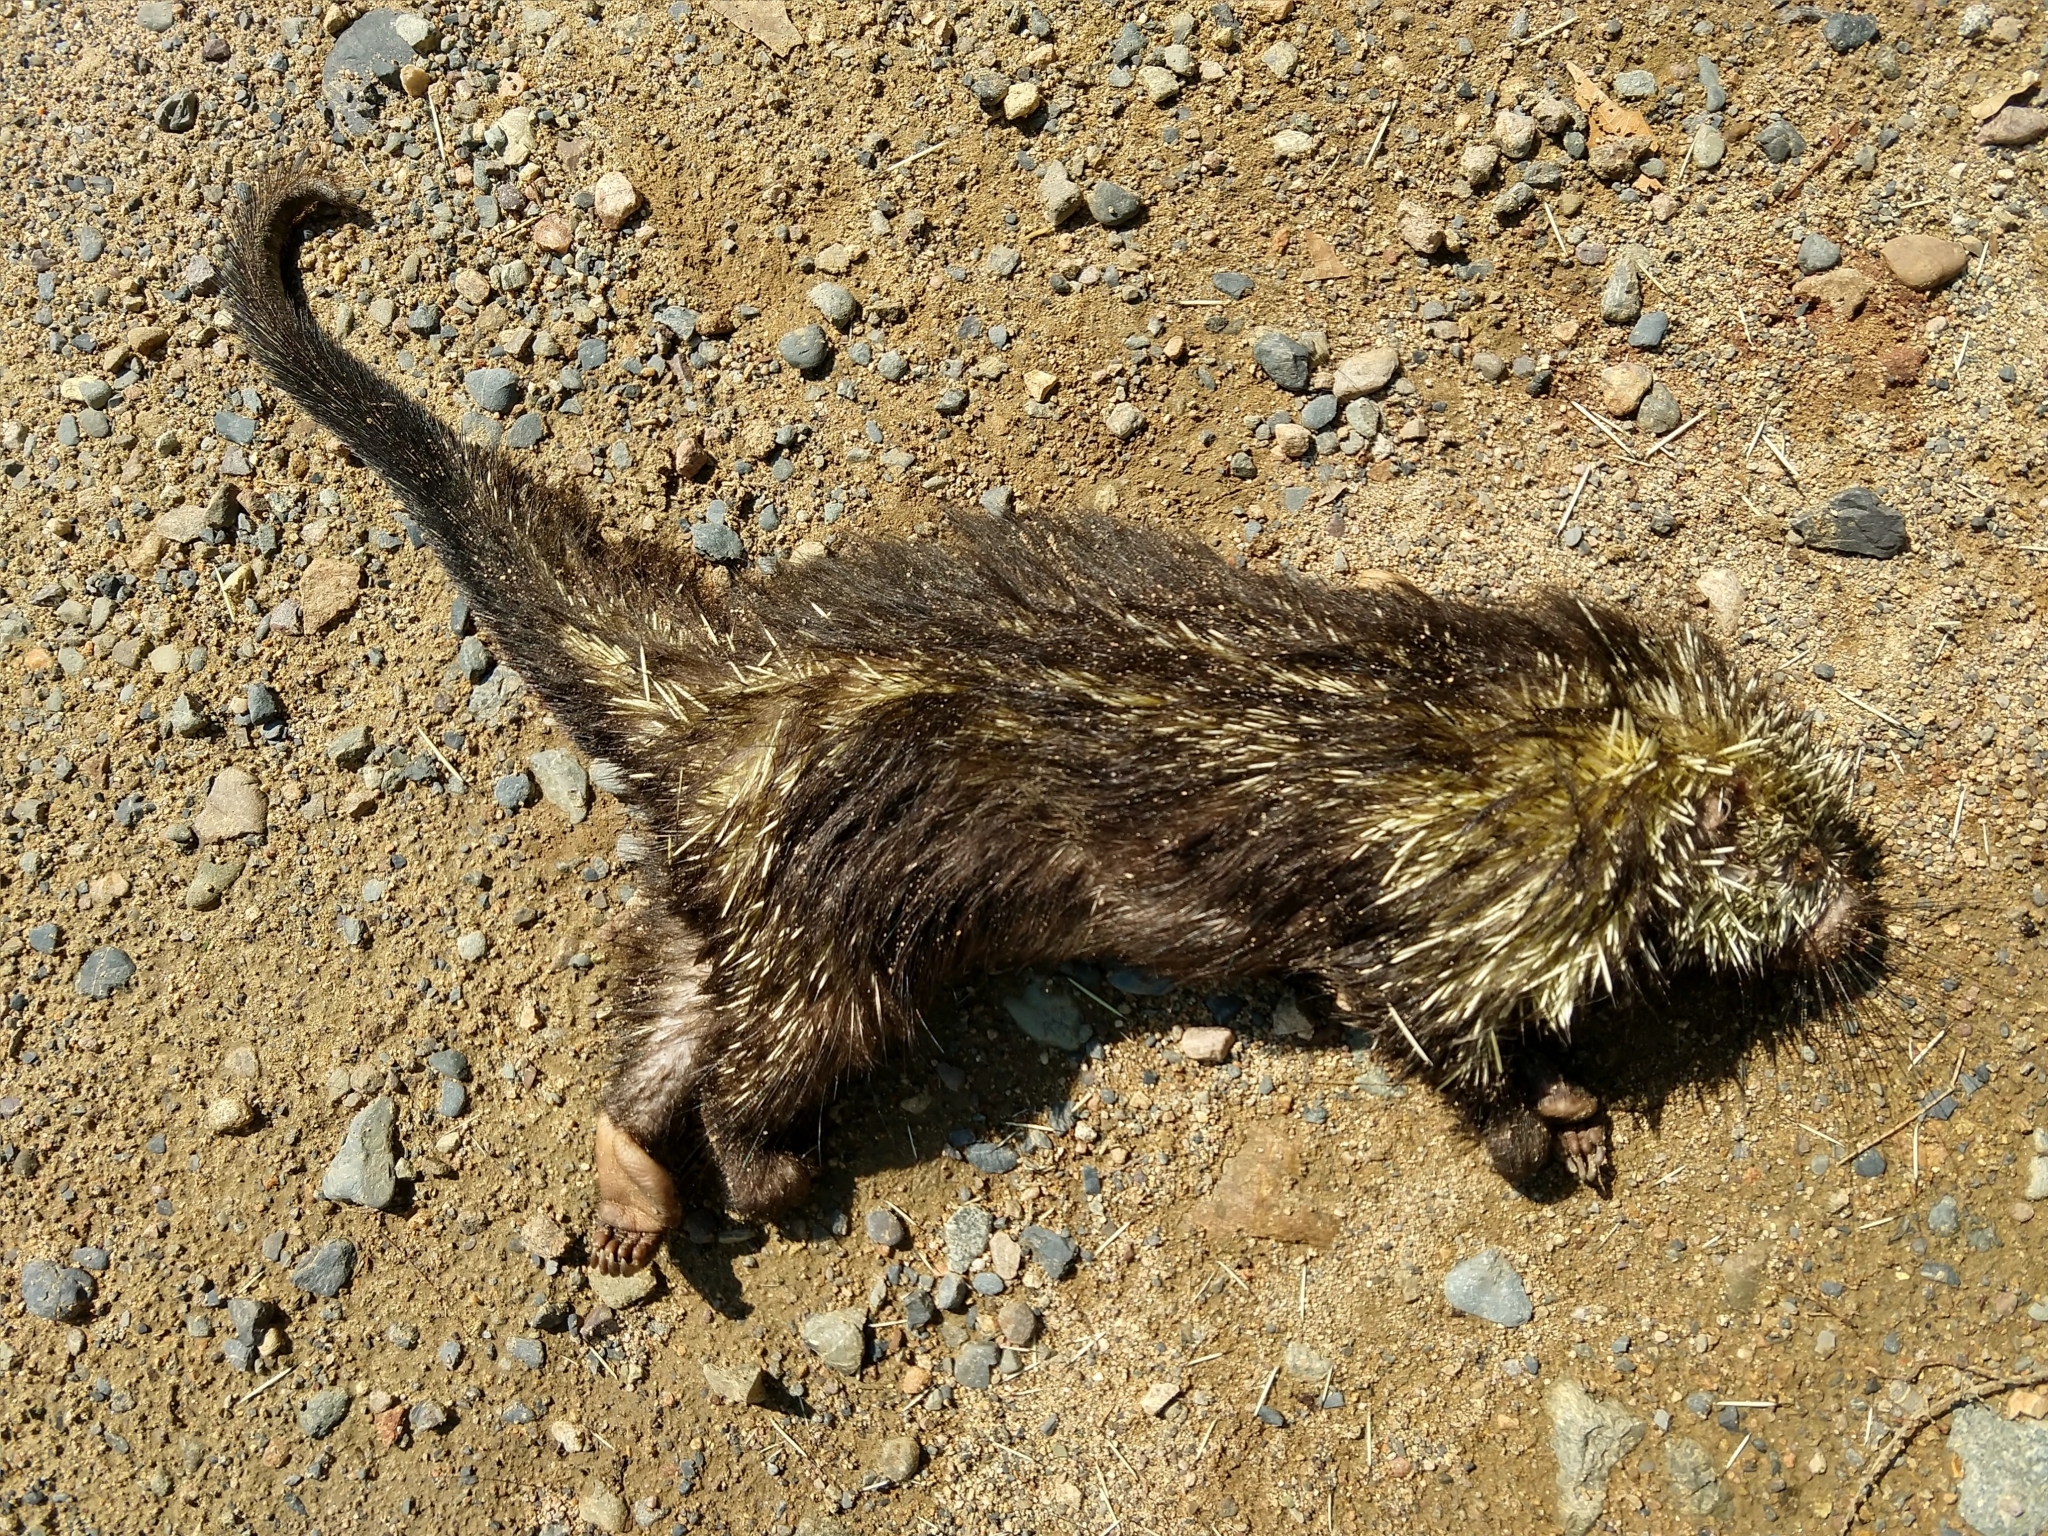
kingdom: Animalia
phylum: Chordata
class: Mammalia
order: Rodentia
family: Erethizontidae
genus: Sphiggurus
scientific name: Sphiggurus mexicanus
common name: Mexican hairy dwarf porcupine
